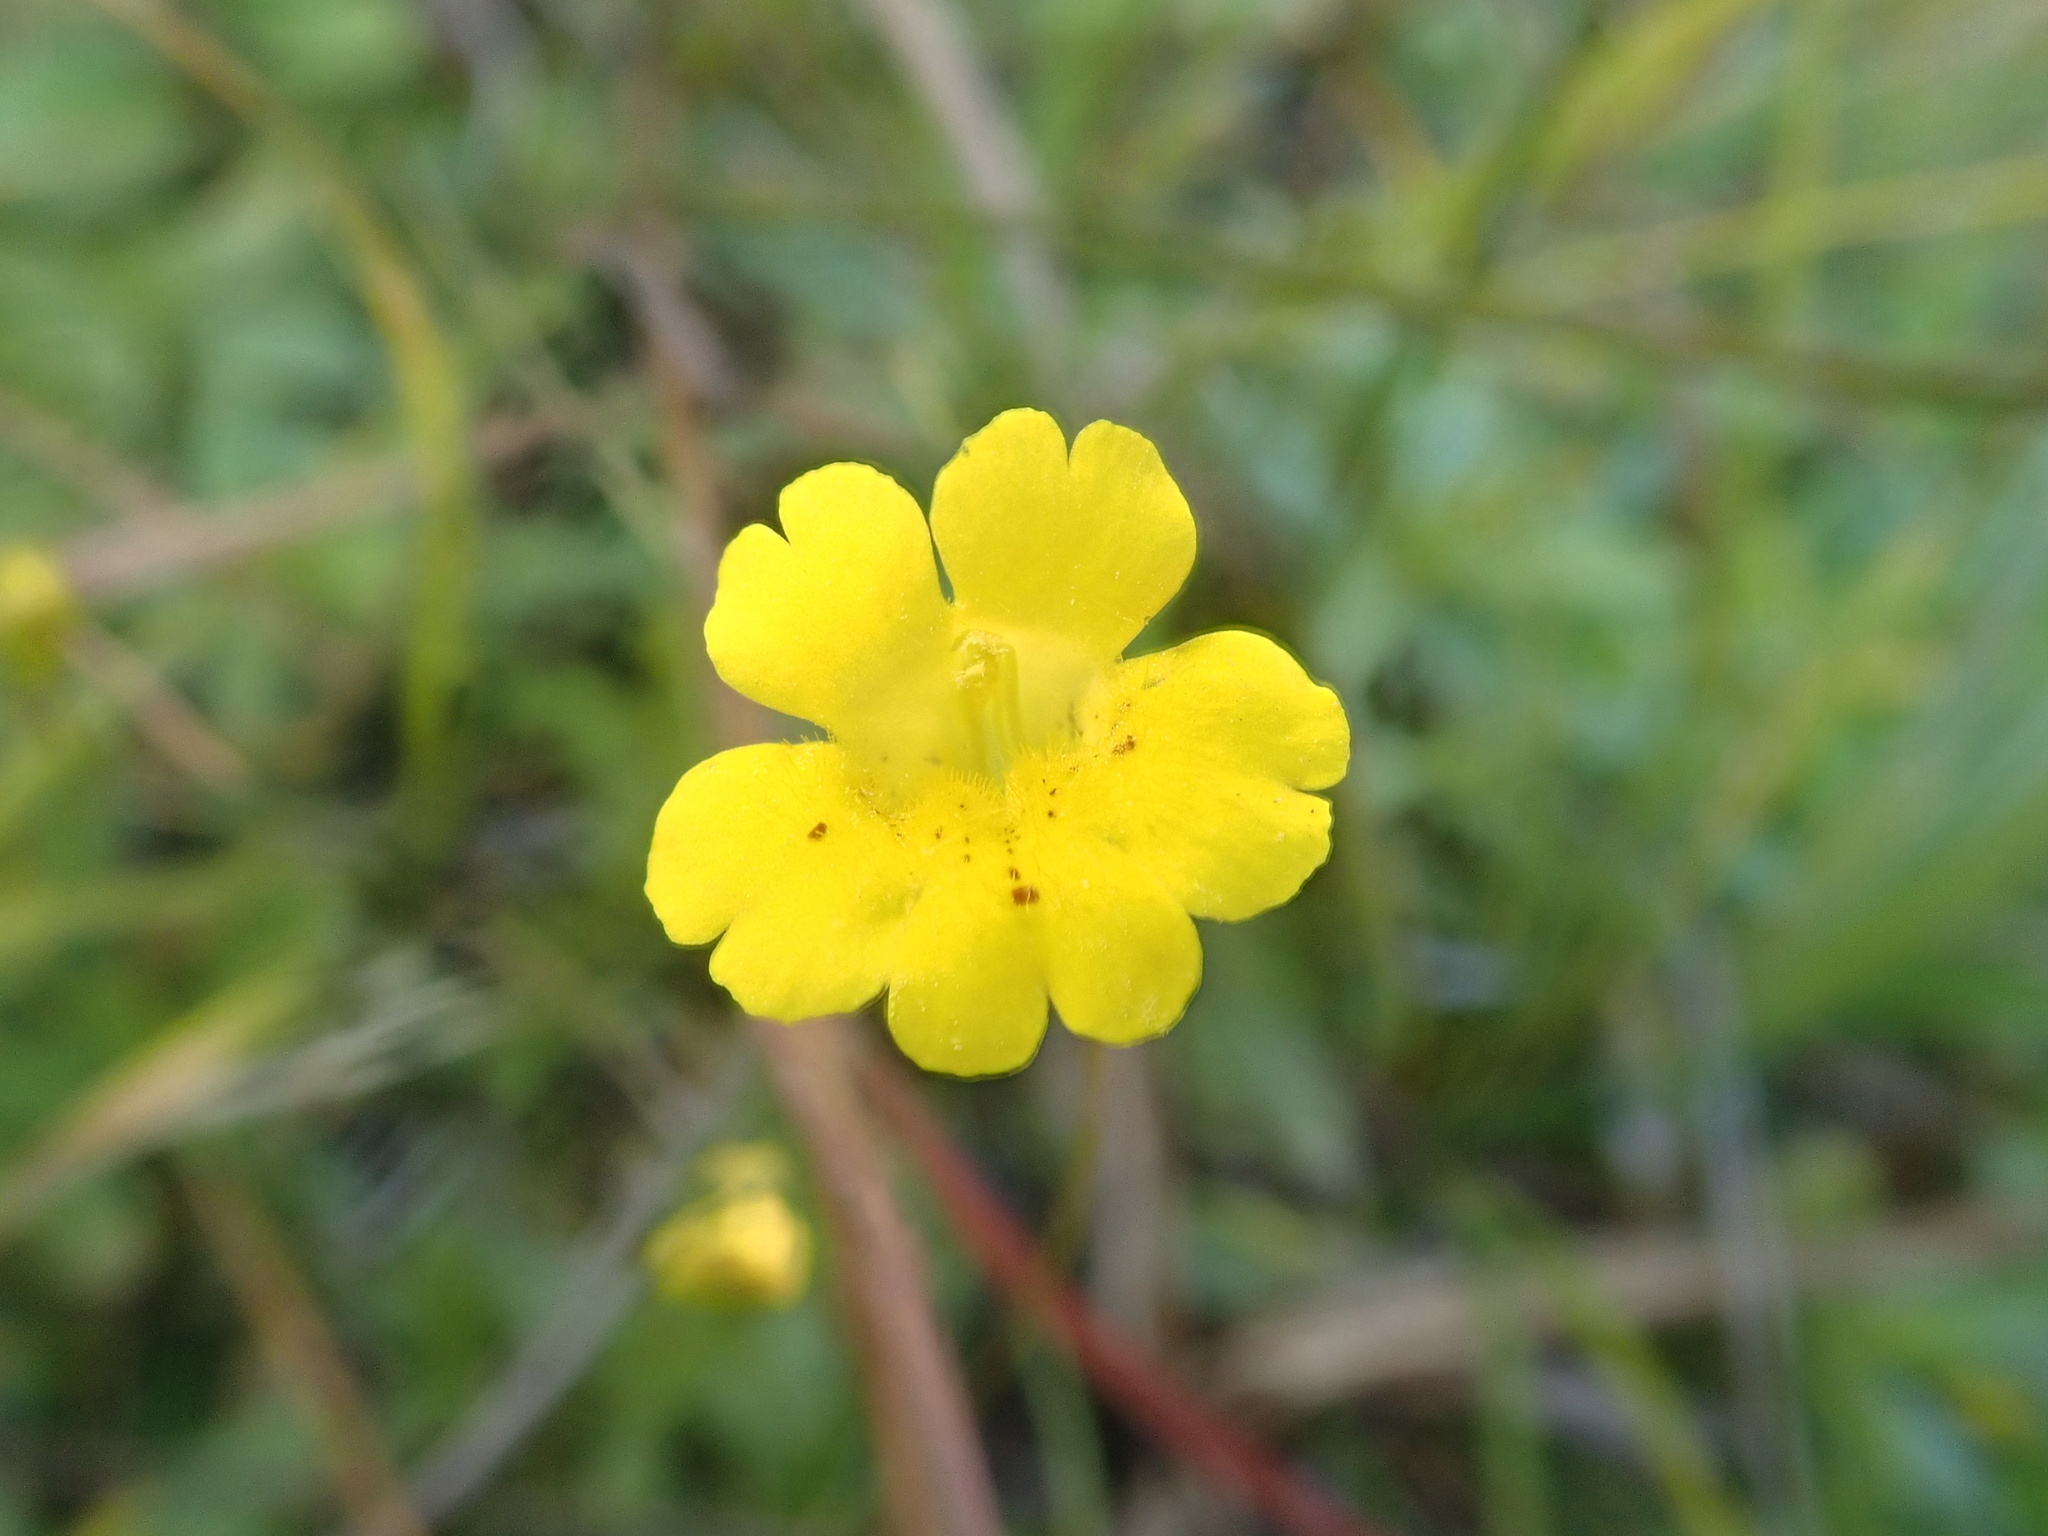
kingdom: Plantae
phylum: Tracheophyta
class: Magnoliopsida
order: Lamiales
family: Phrymaceae
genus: Erythranthe
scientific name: Erythranthe primuloides
